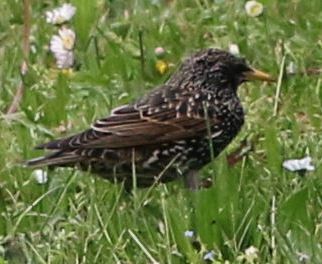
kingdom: Animalia
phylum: Chordata
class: Aves
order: Passeriformes
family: Sturnidae
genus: Sturnus
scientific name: Sturnus vulgaris
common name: Common starling
